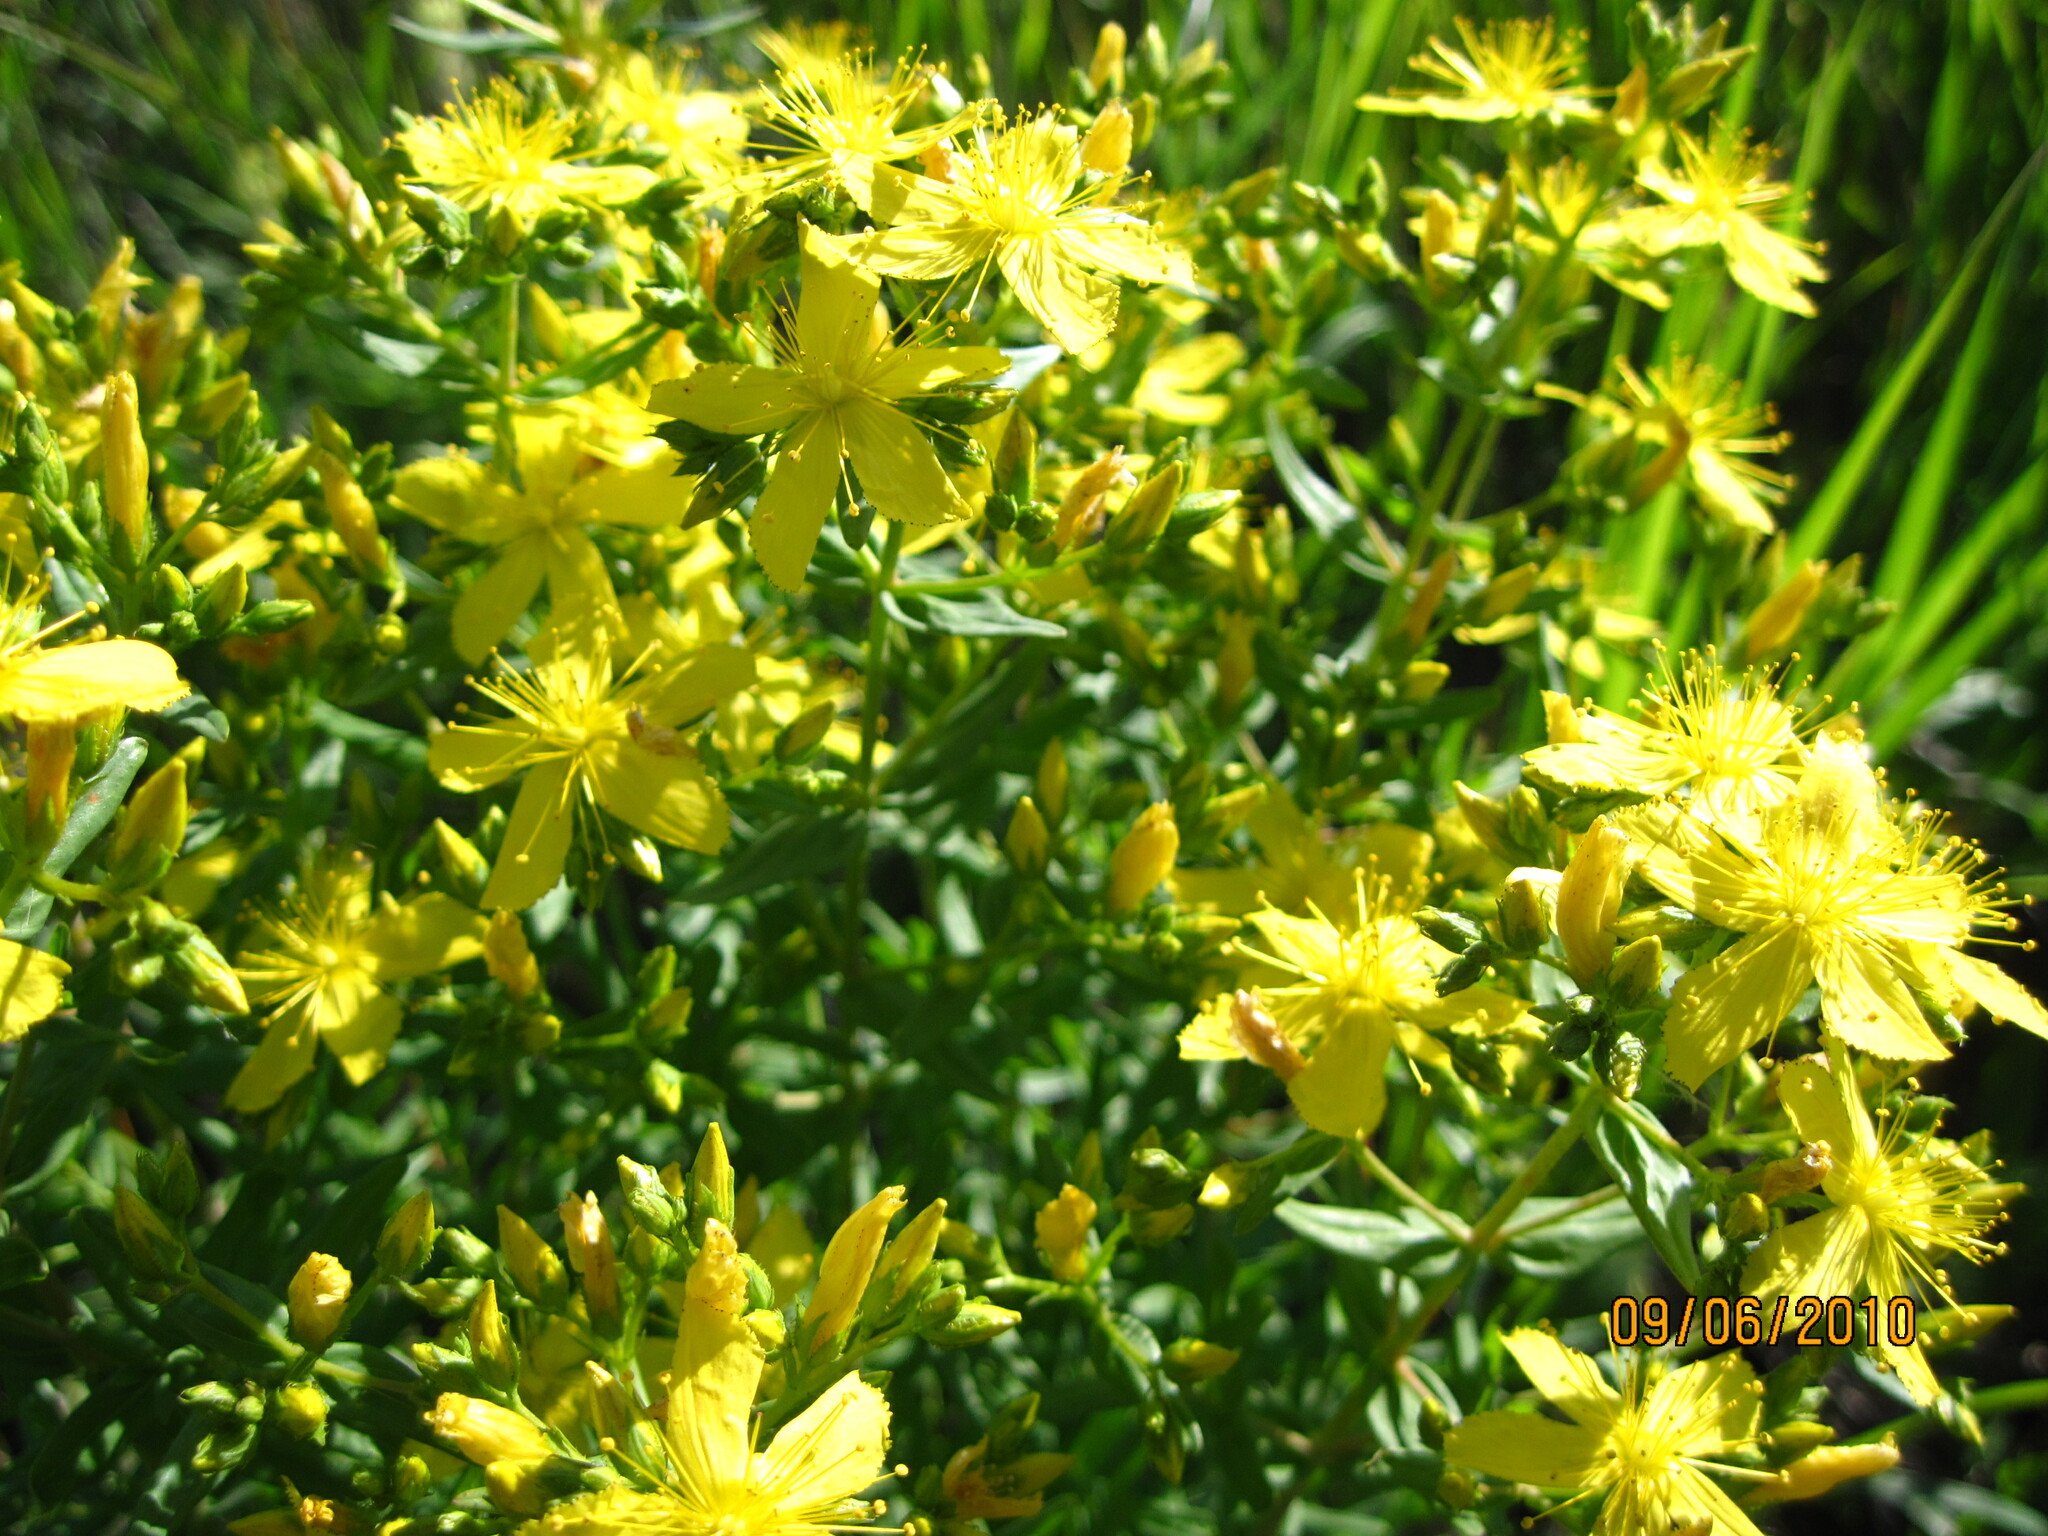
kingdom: Plantae
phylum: Tracheophyta
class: Magnoliopsida
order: Malpighiales
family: Hypericaceae
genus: Hypericum
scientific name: Hypericum elegans
